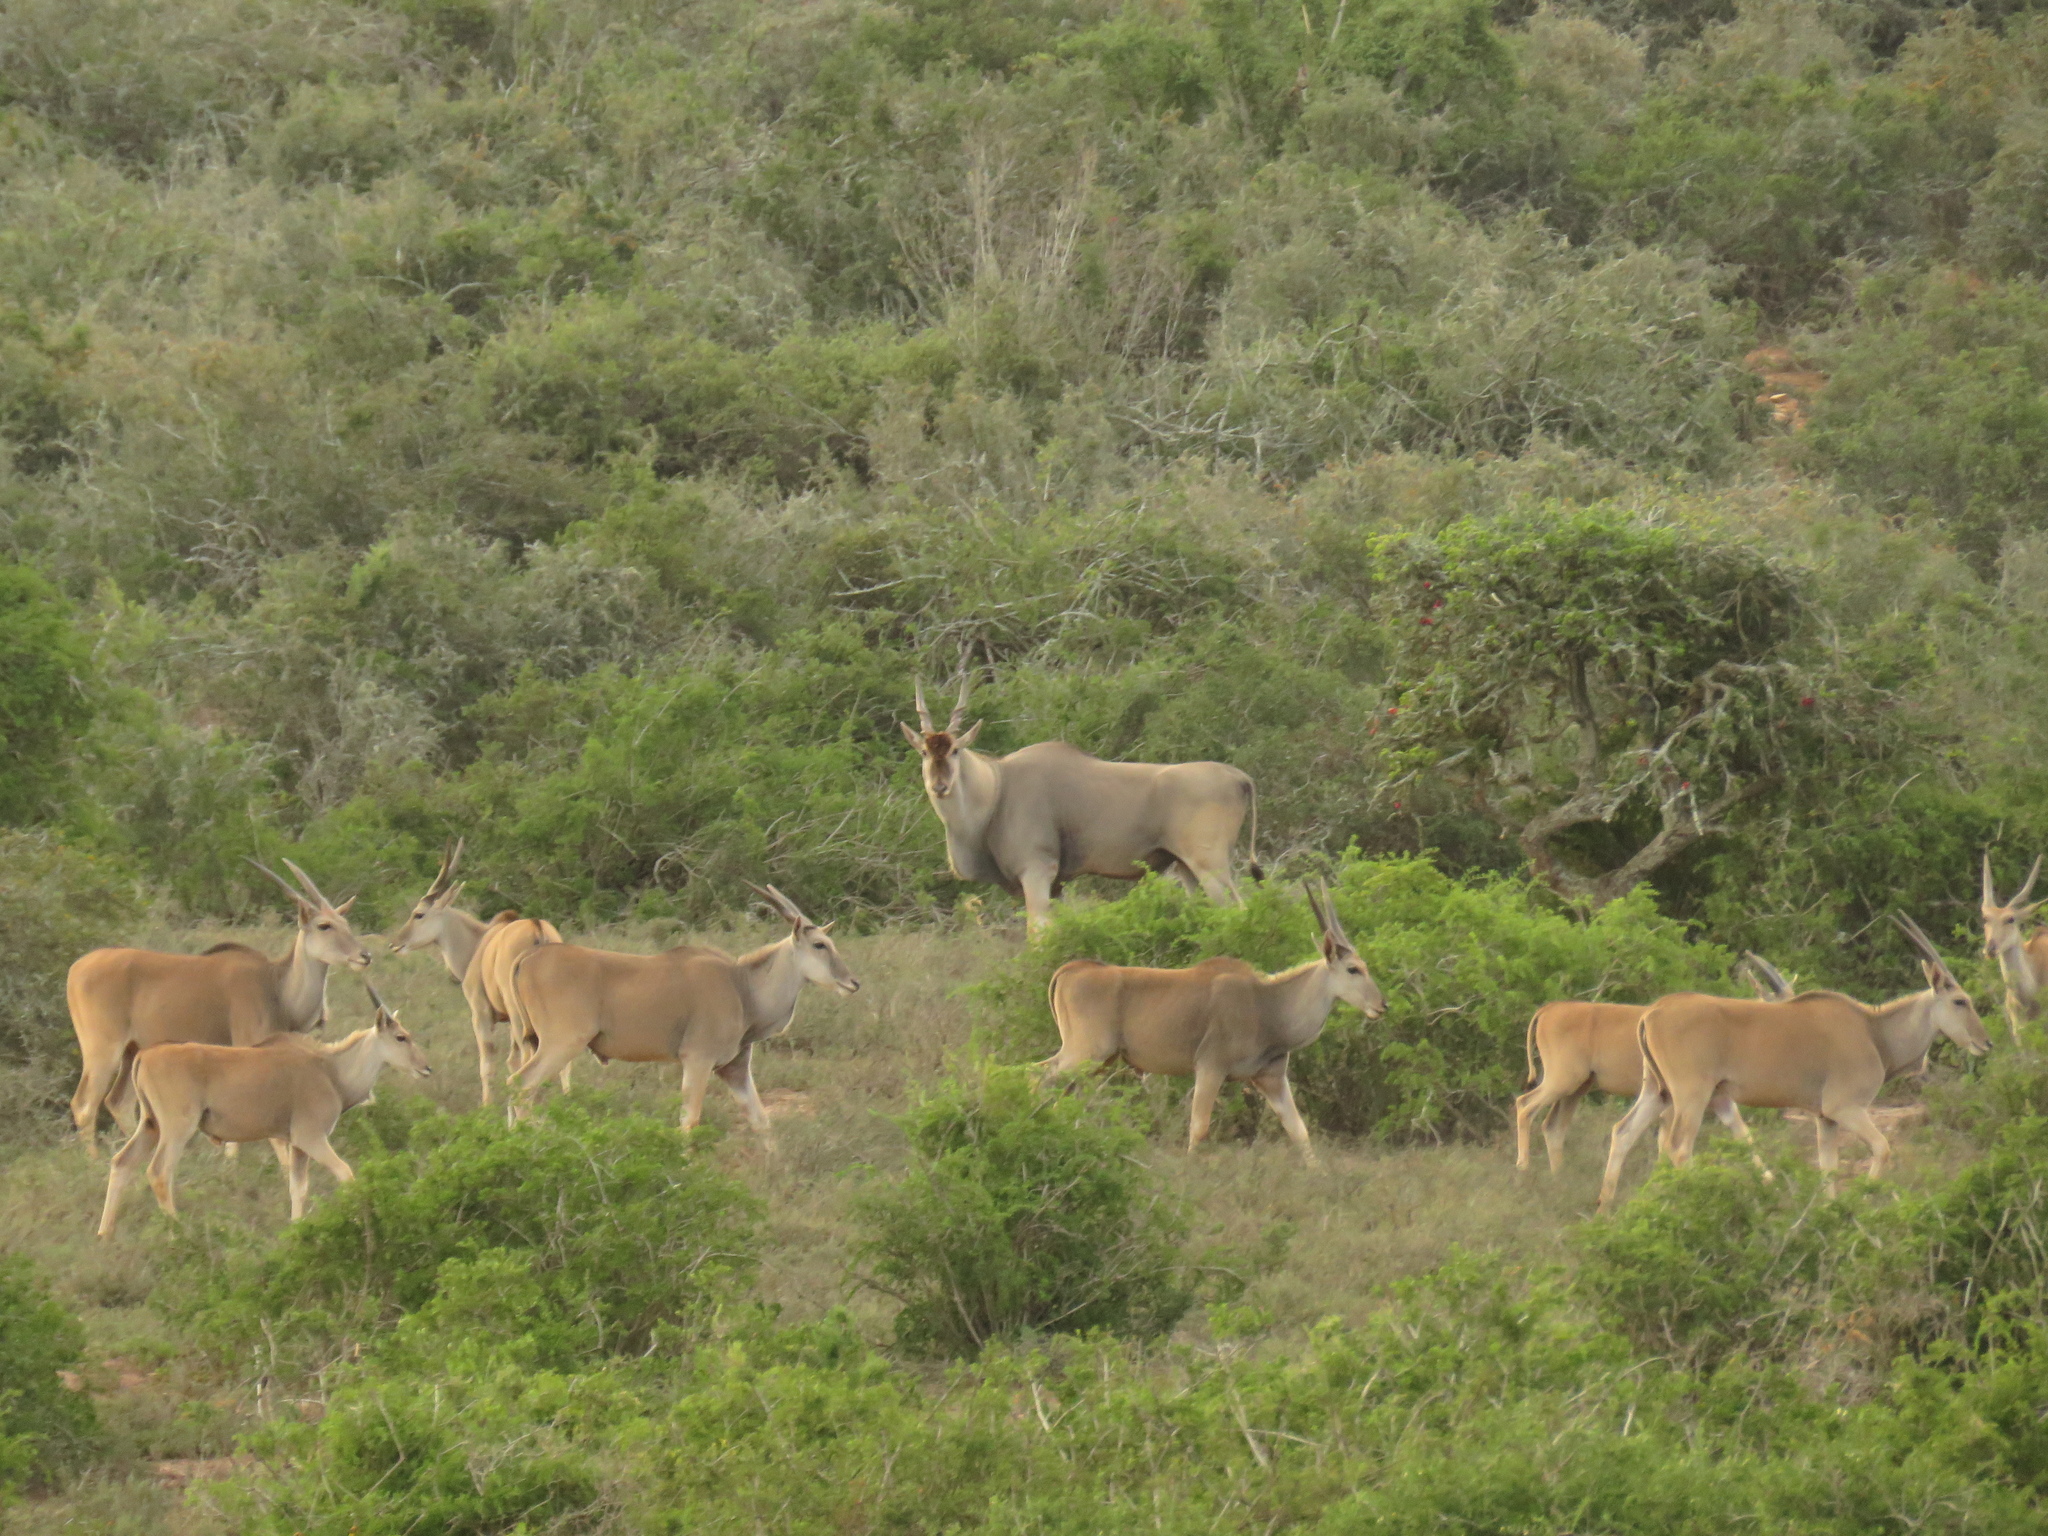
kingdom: Animalia
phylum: Chordata
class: Mammalia
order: Artiodactyla
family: Bovidae
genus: Taurotragus
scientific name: Taurotragus oryx
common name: Common eland
